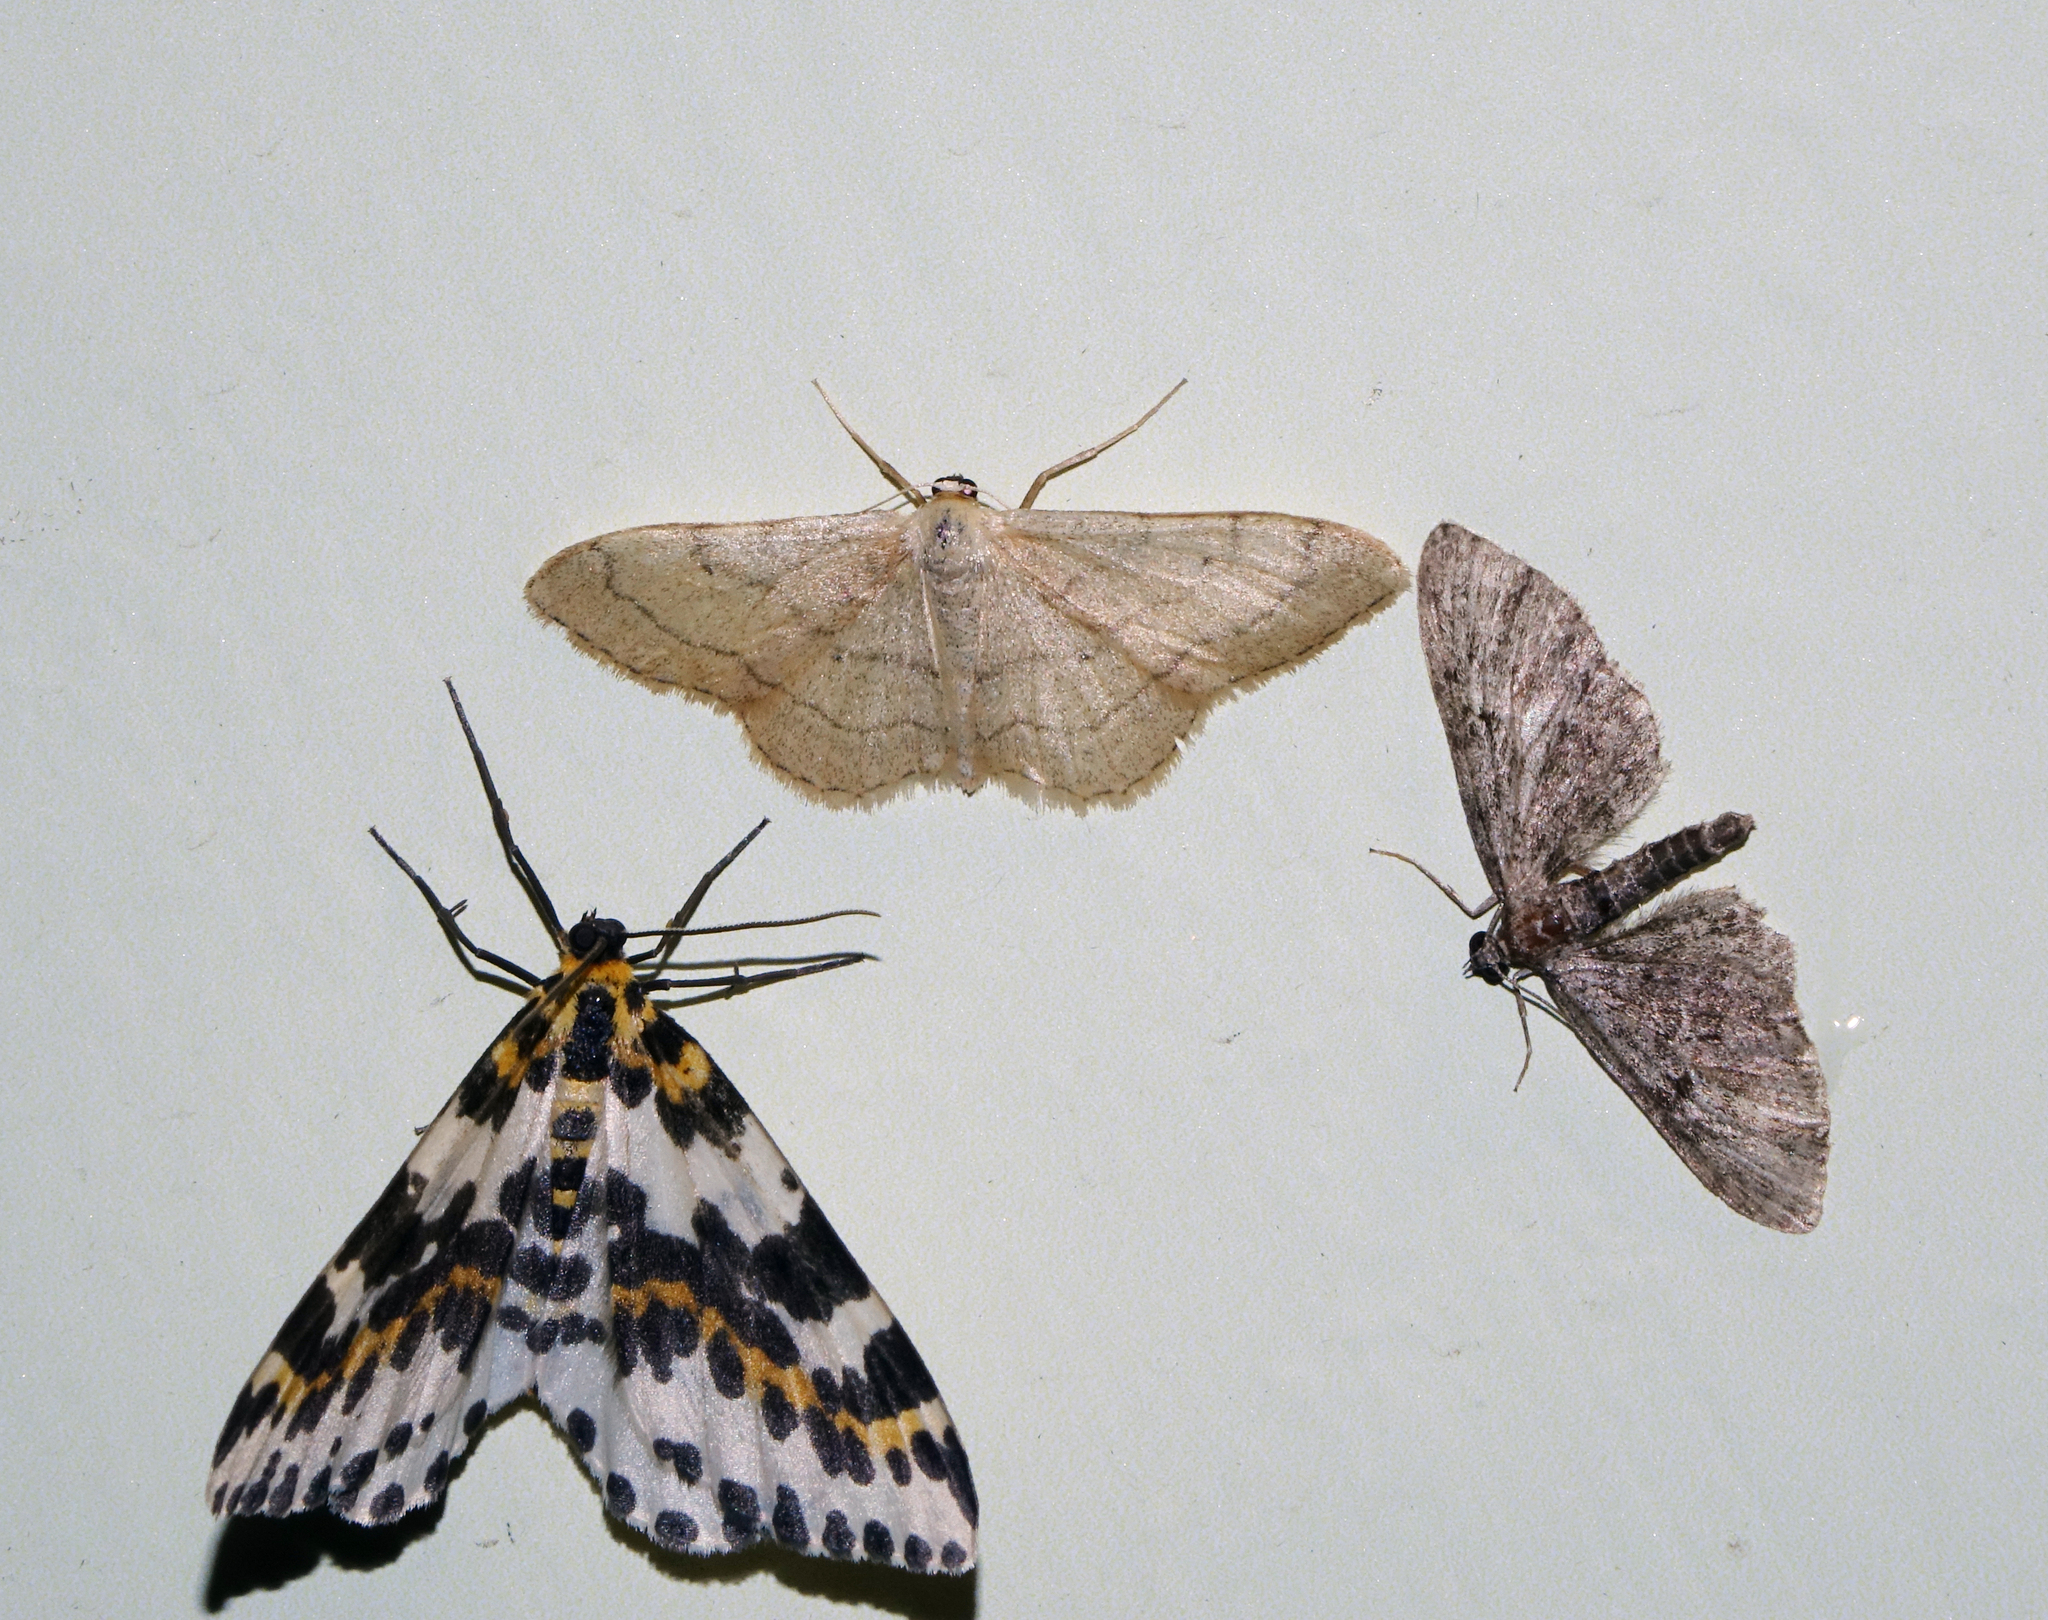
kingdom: Animalia
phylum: Arthropoda
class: Insecta
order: Lepidoptera
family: Geometridae
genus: Abraxas
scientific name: Abraxas grossulariata
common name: Magpie
